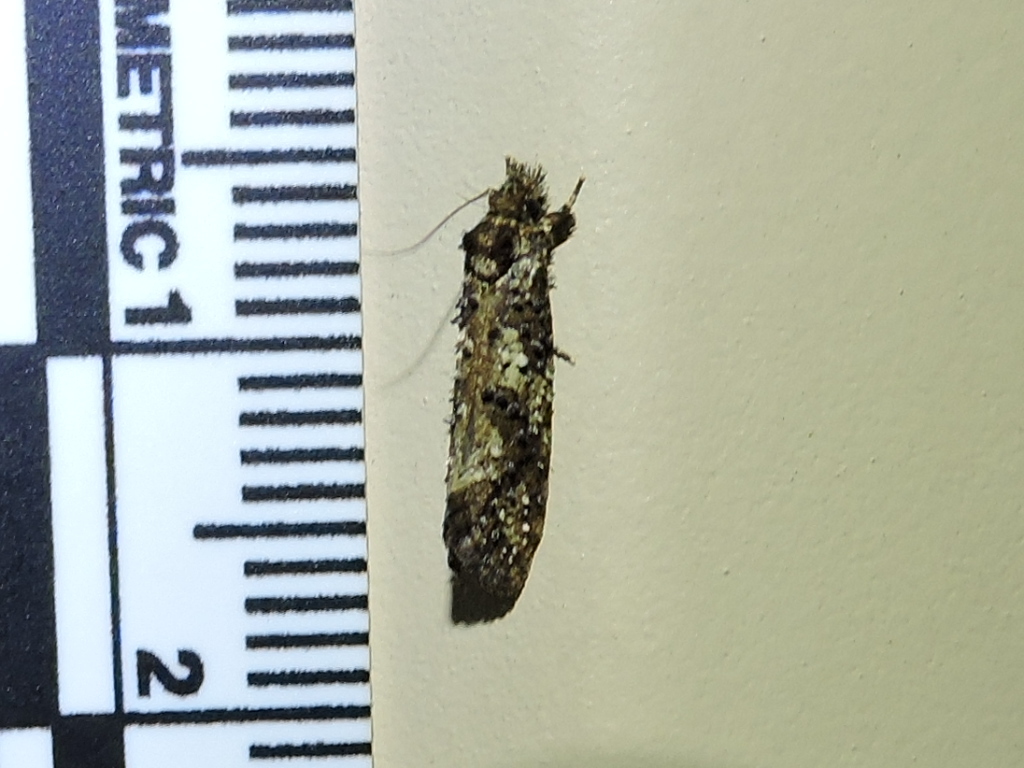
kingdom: Animalia
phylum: Arthropoda
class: Insecta
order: Lepidoptera
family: Tineidae
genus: Acrolophus
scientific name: Acrolophus cressoni
